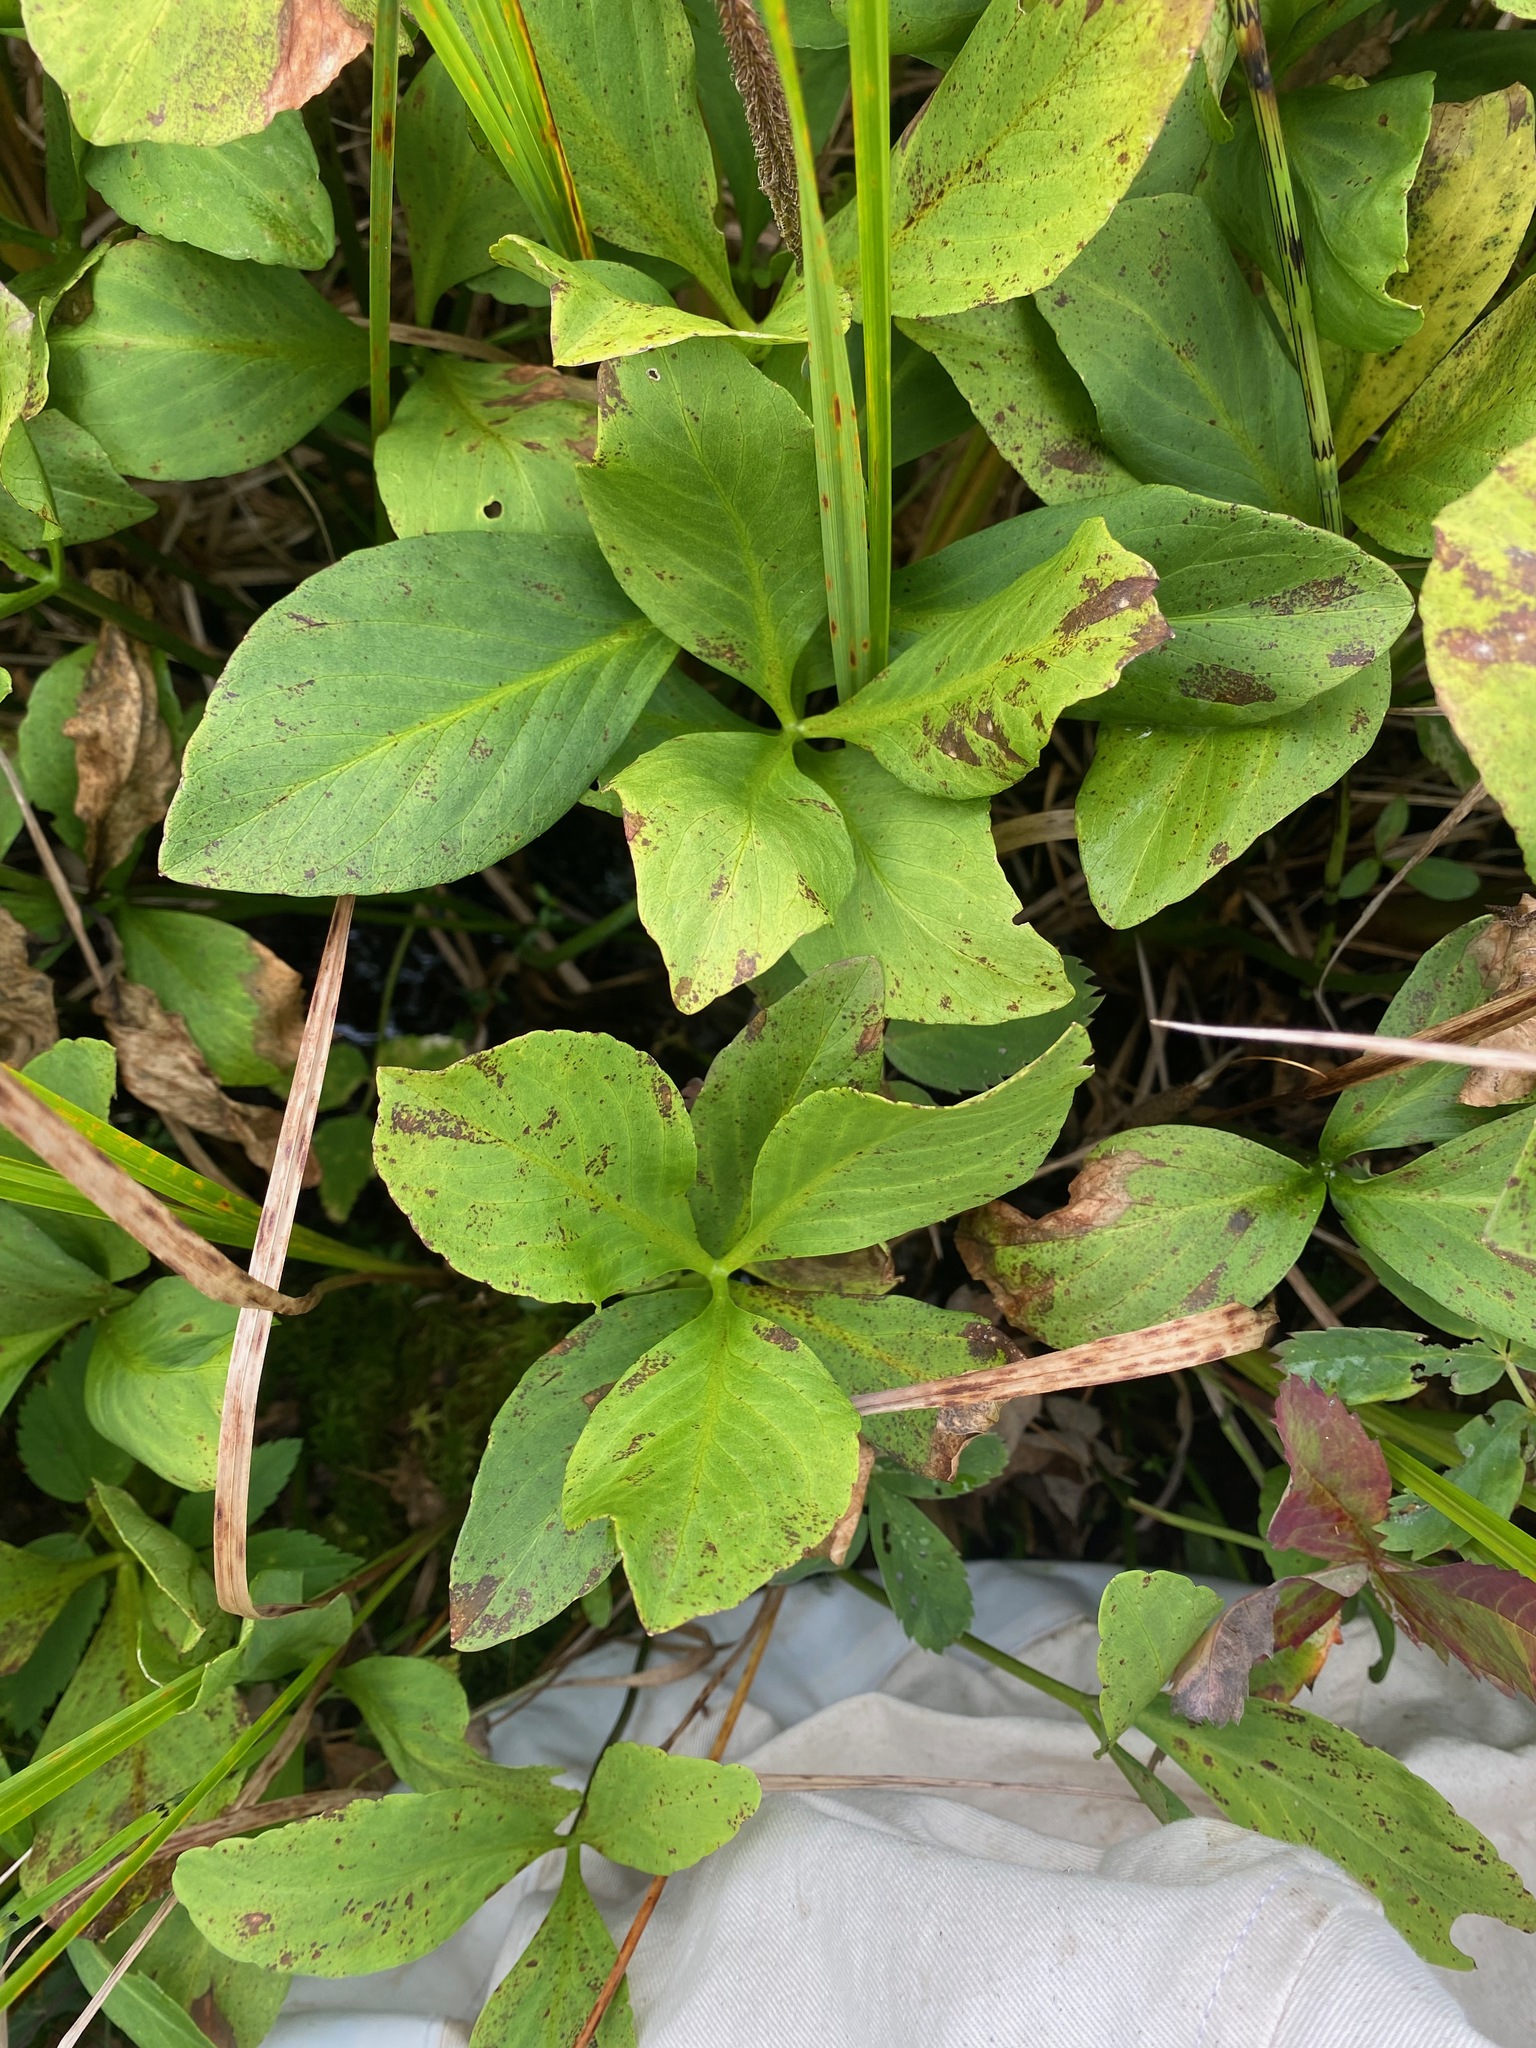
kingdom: Plantae
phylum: Tracheophyta
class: Magnoliopsida
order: Asterales
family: Menyanthaceae
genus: Menyanthes
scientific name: Menyanthes trifoliata
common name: Bogbean
